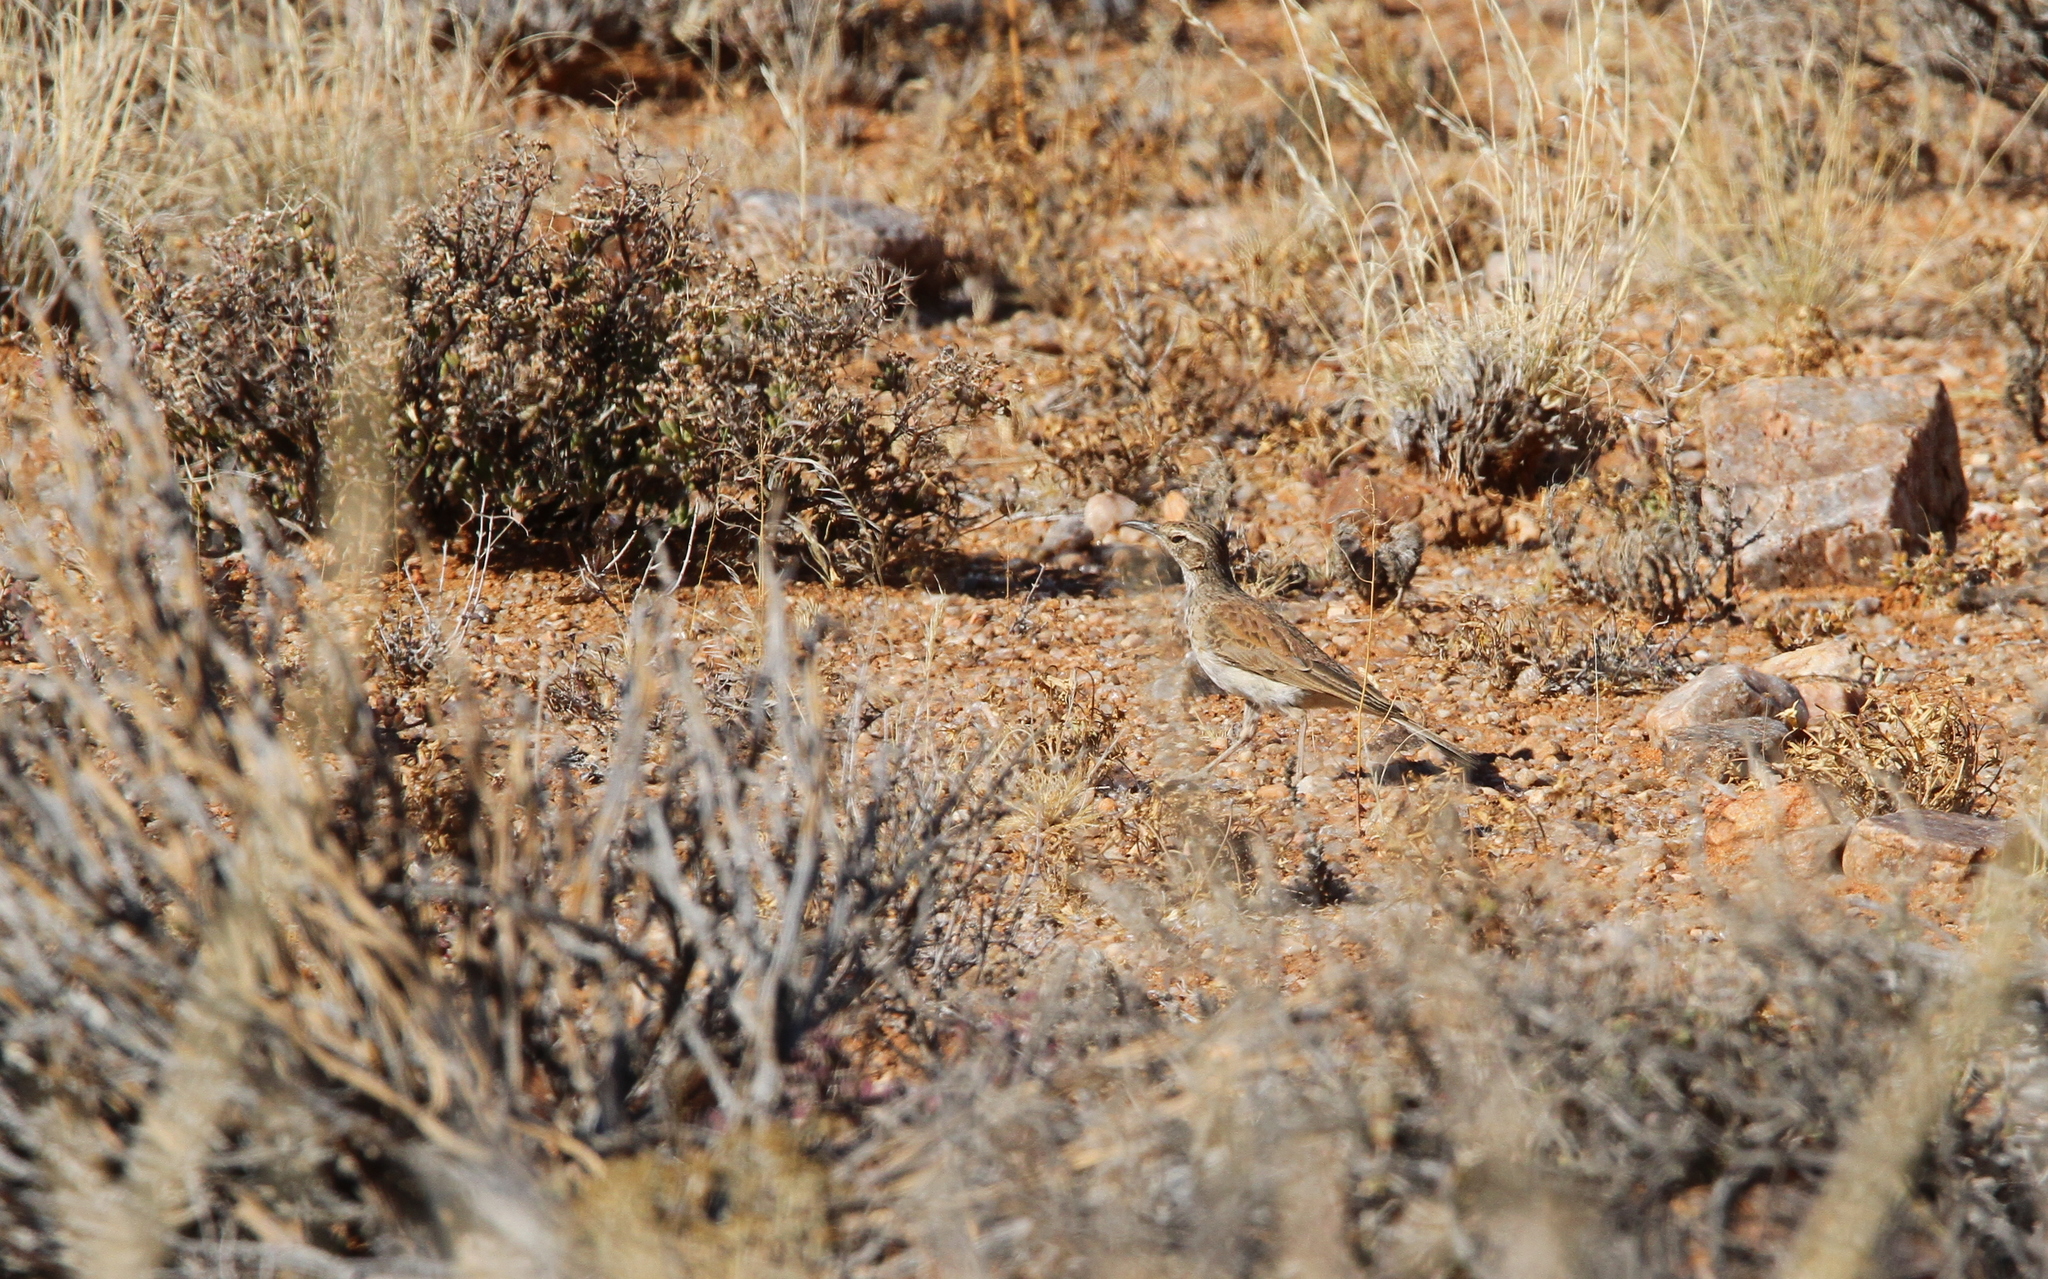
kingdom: Animalia
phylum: Chordata
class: Aves
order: Passeriformes
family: Alaudidae
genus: Certhilauda
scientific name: Certhilauda subcoronata
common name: Karoo long-billed lark
